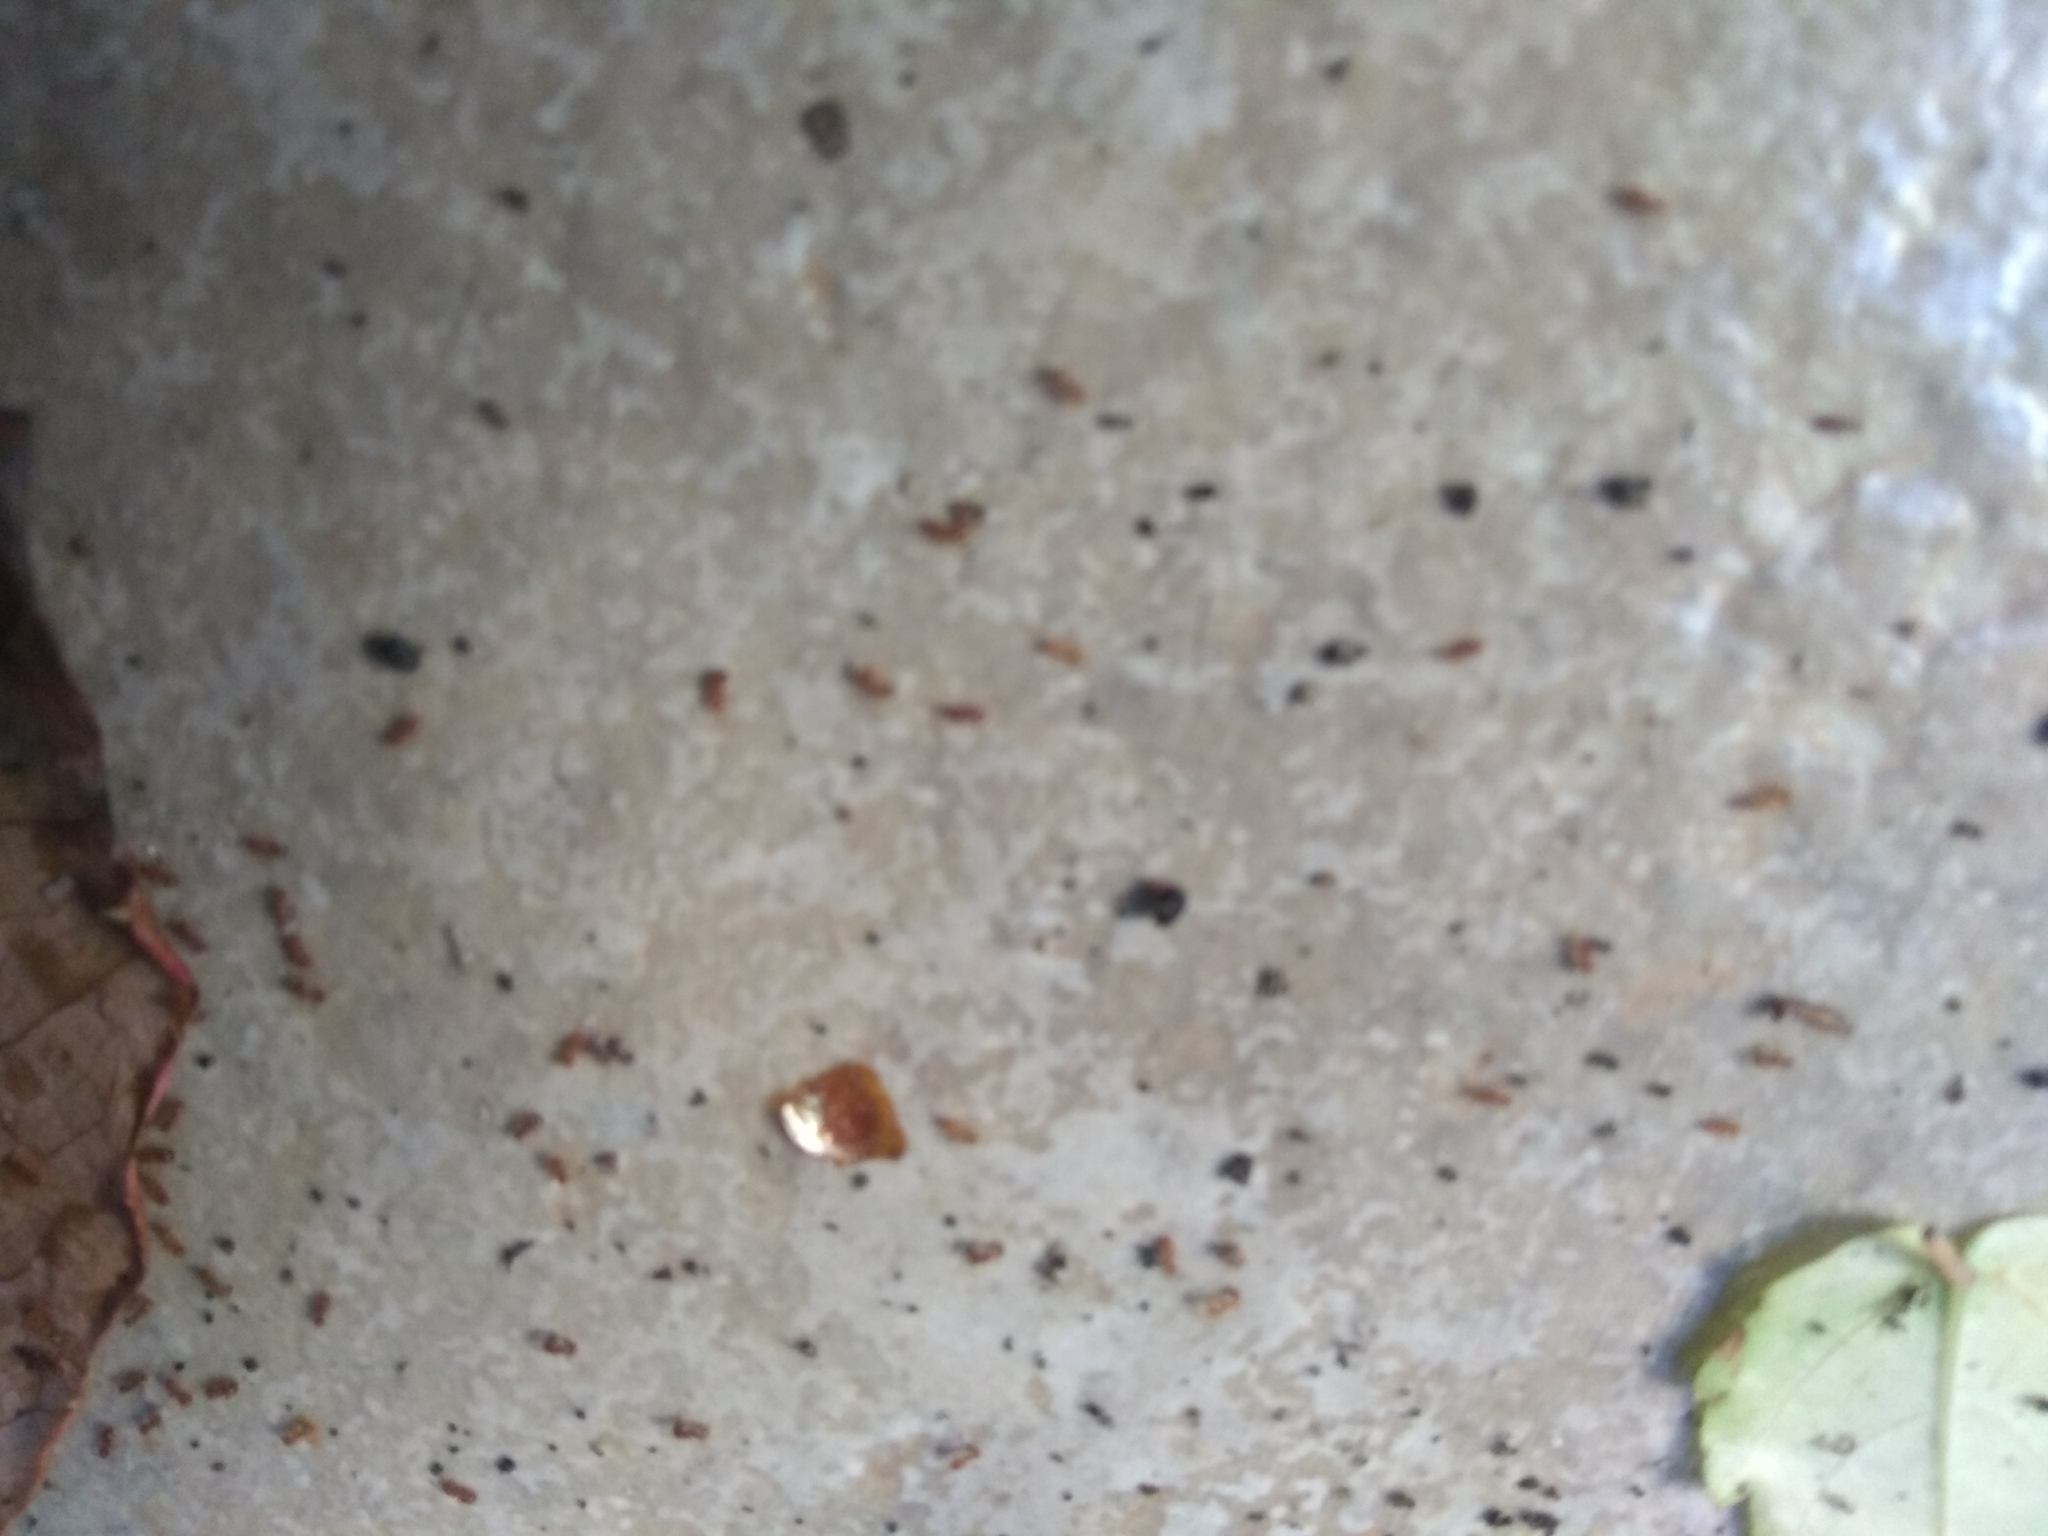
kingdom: Animalia
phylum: Arthropoda
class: Insecta
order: Hymenoptera
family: Formicidae
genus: Linepithema
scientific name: Linepithema humile
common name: Argentine ant
